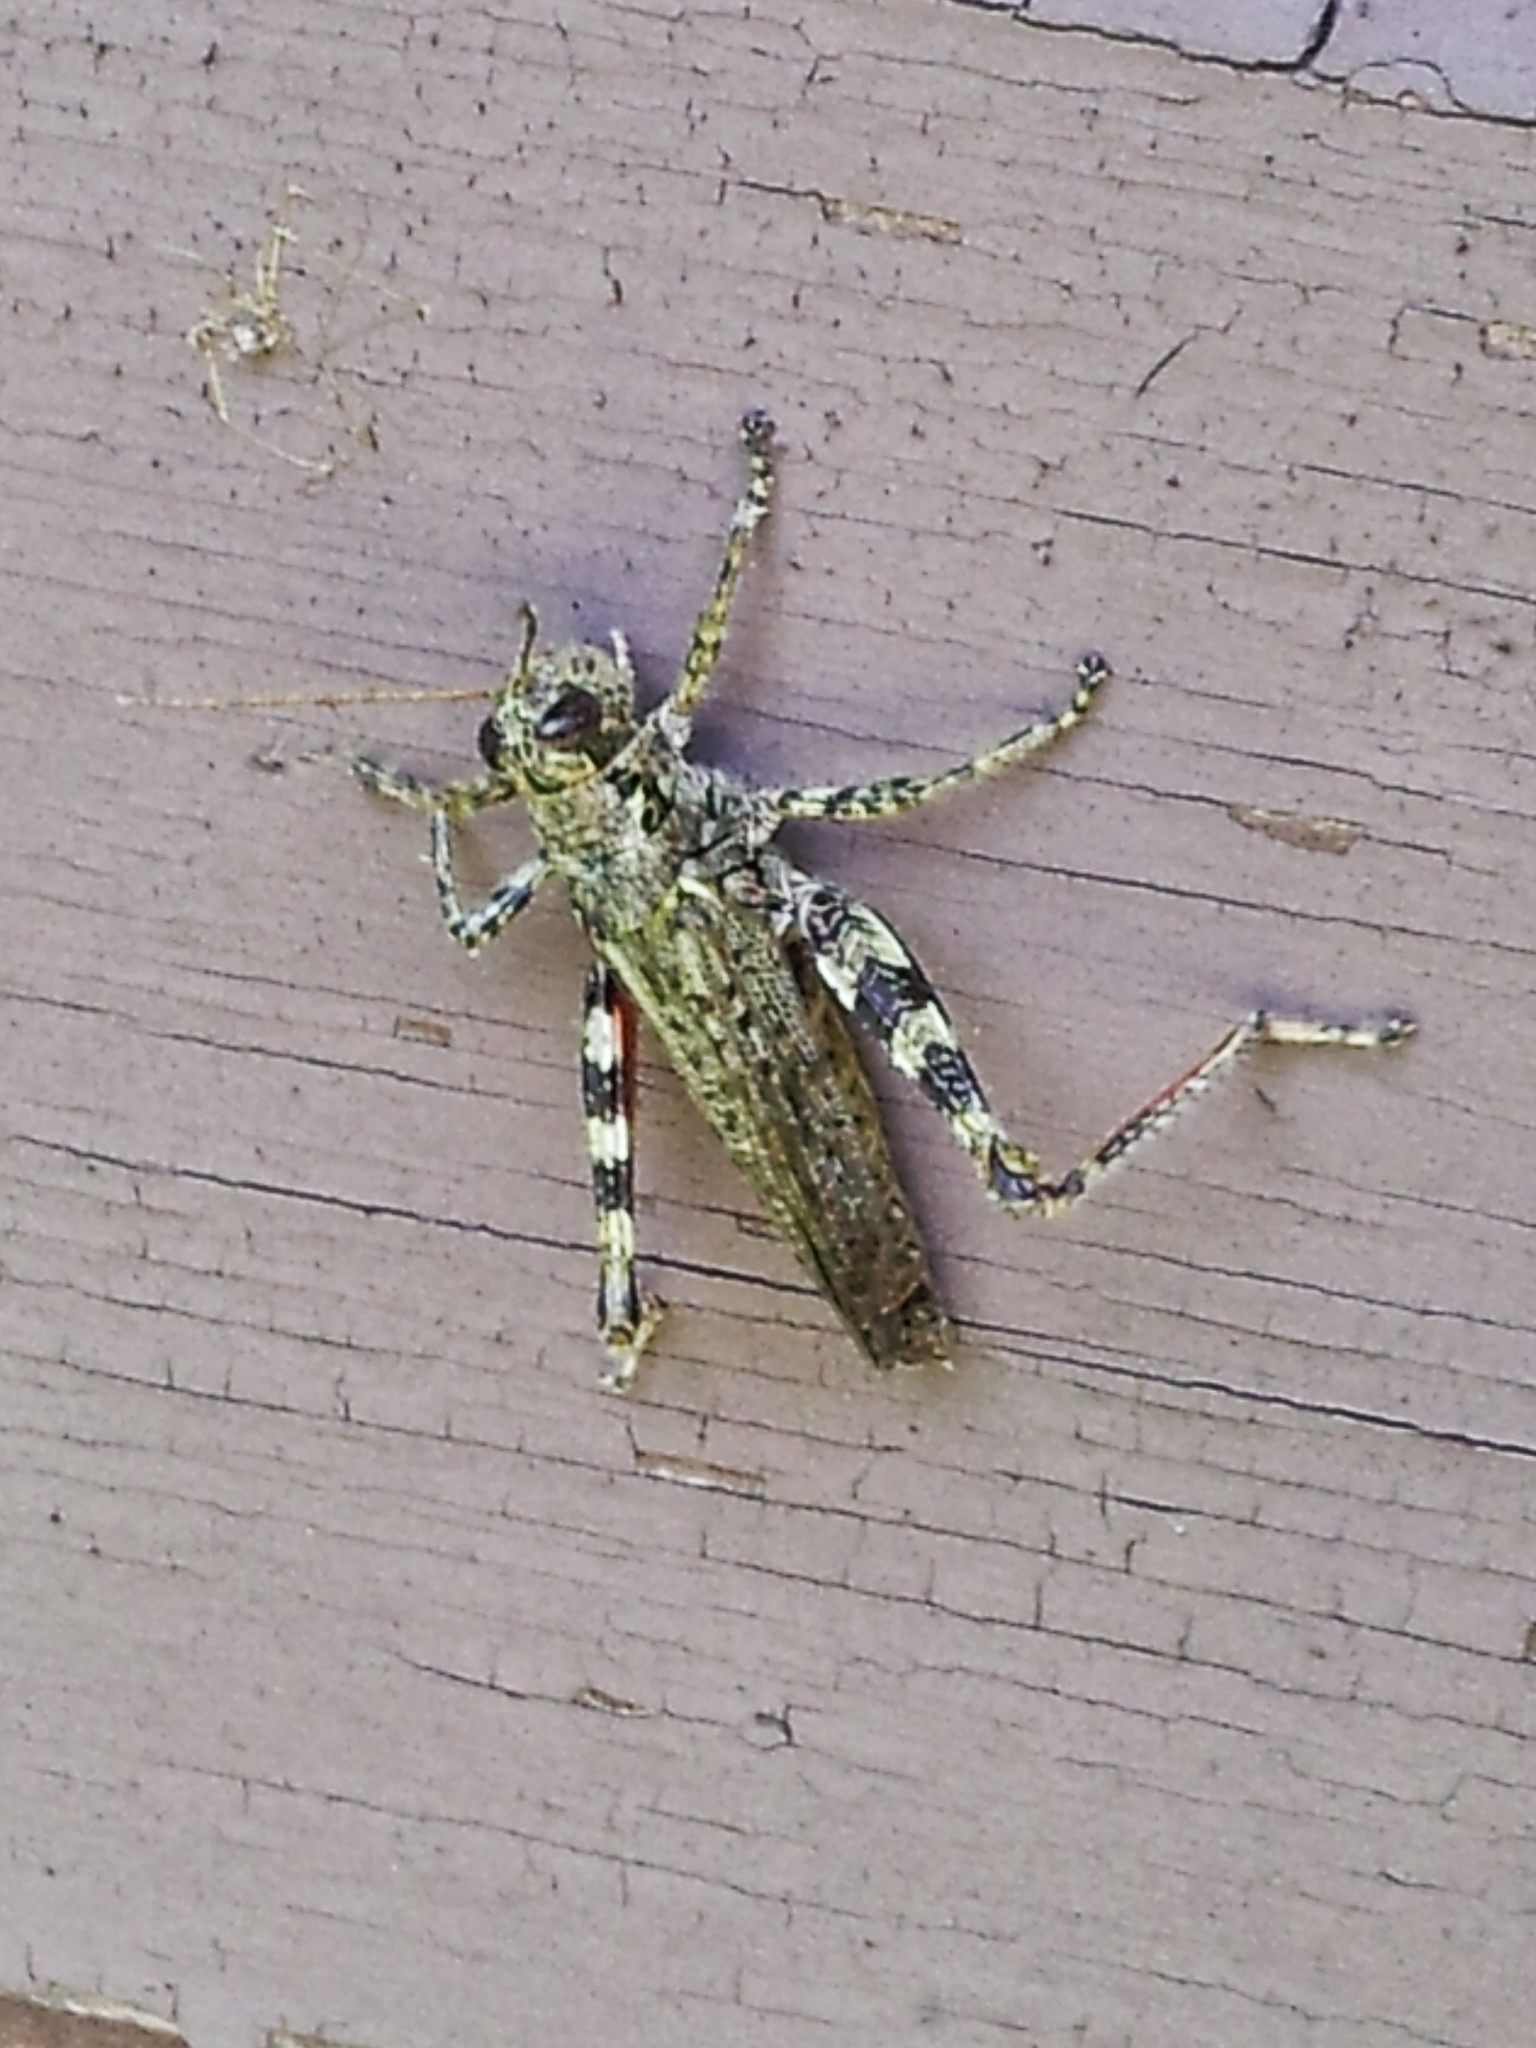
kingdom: Animalia
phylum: Arthropoda
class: Insecta
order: Orthoptera
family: Acrididae
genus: Melanoplus
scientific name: Melanoplus punctulatus
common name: Pine-tree spur-throat grasshopper
